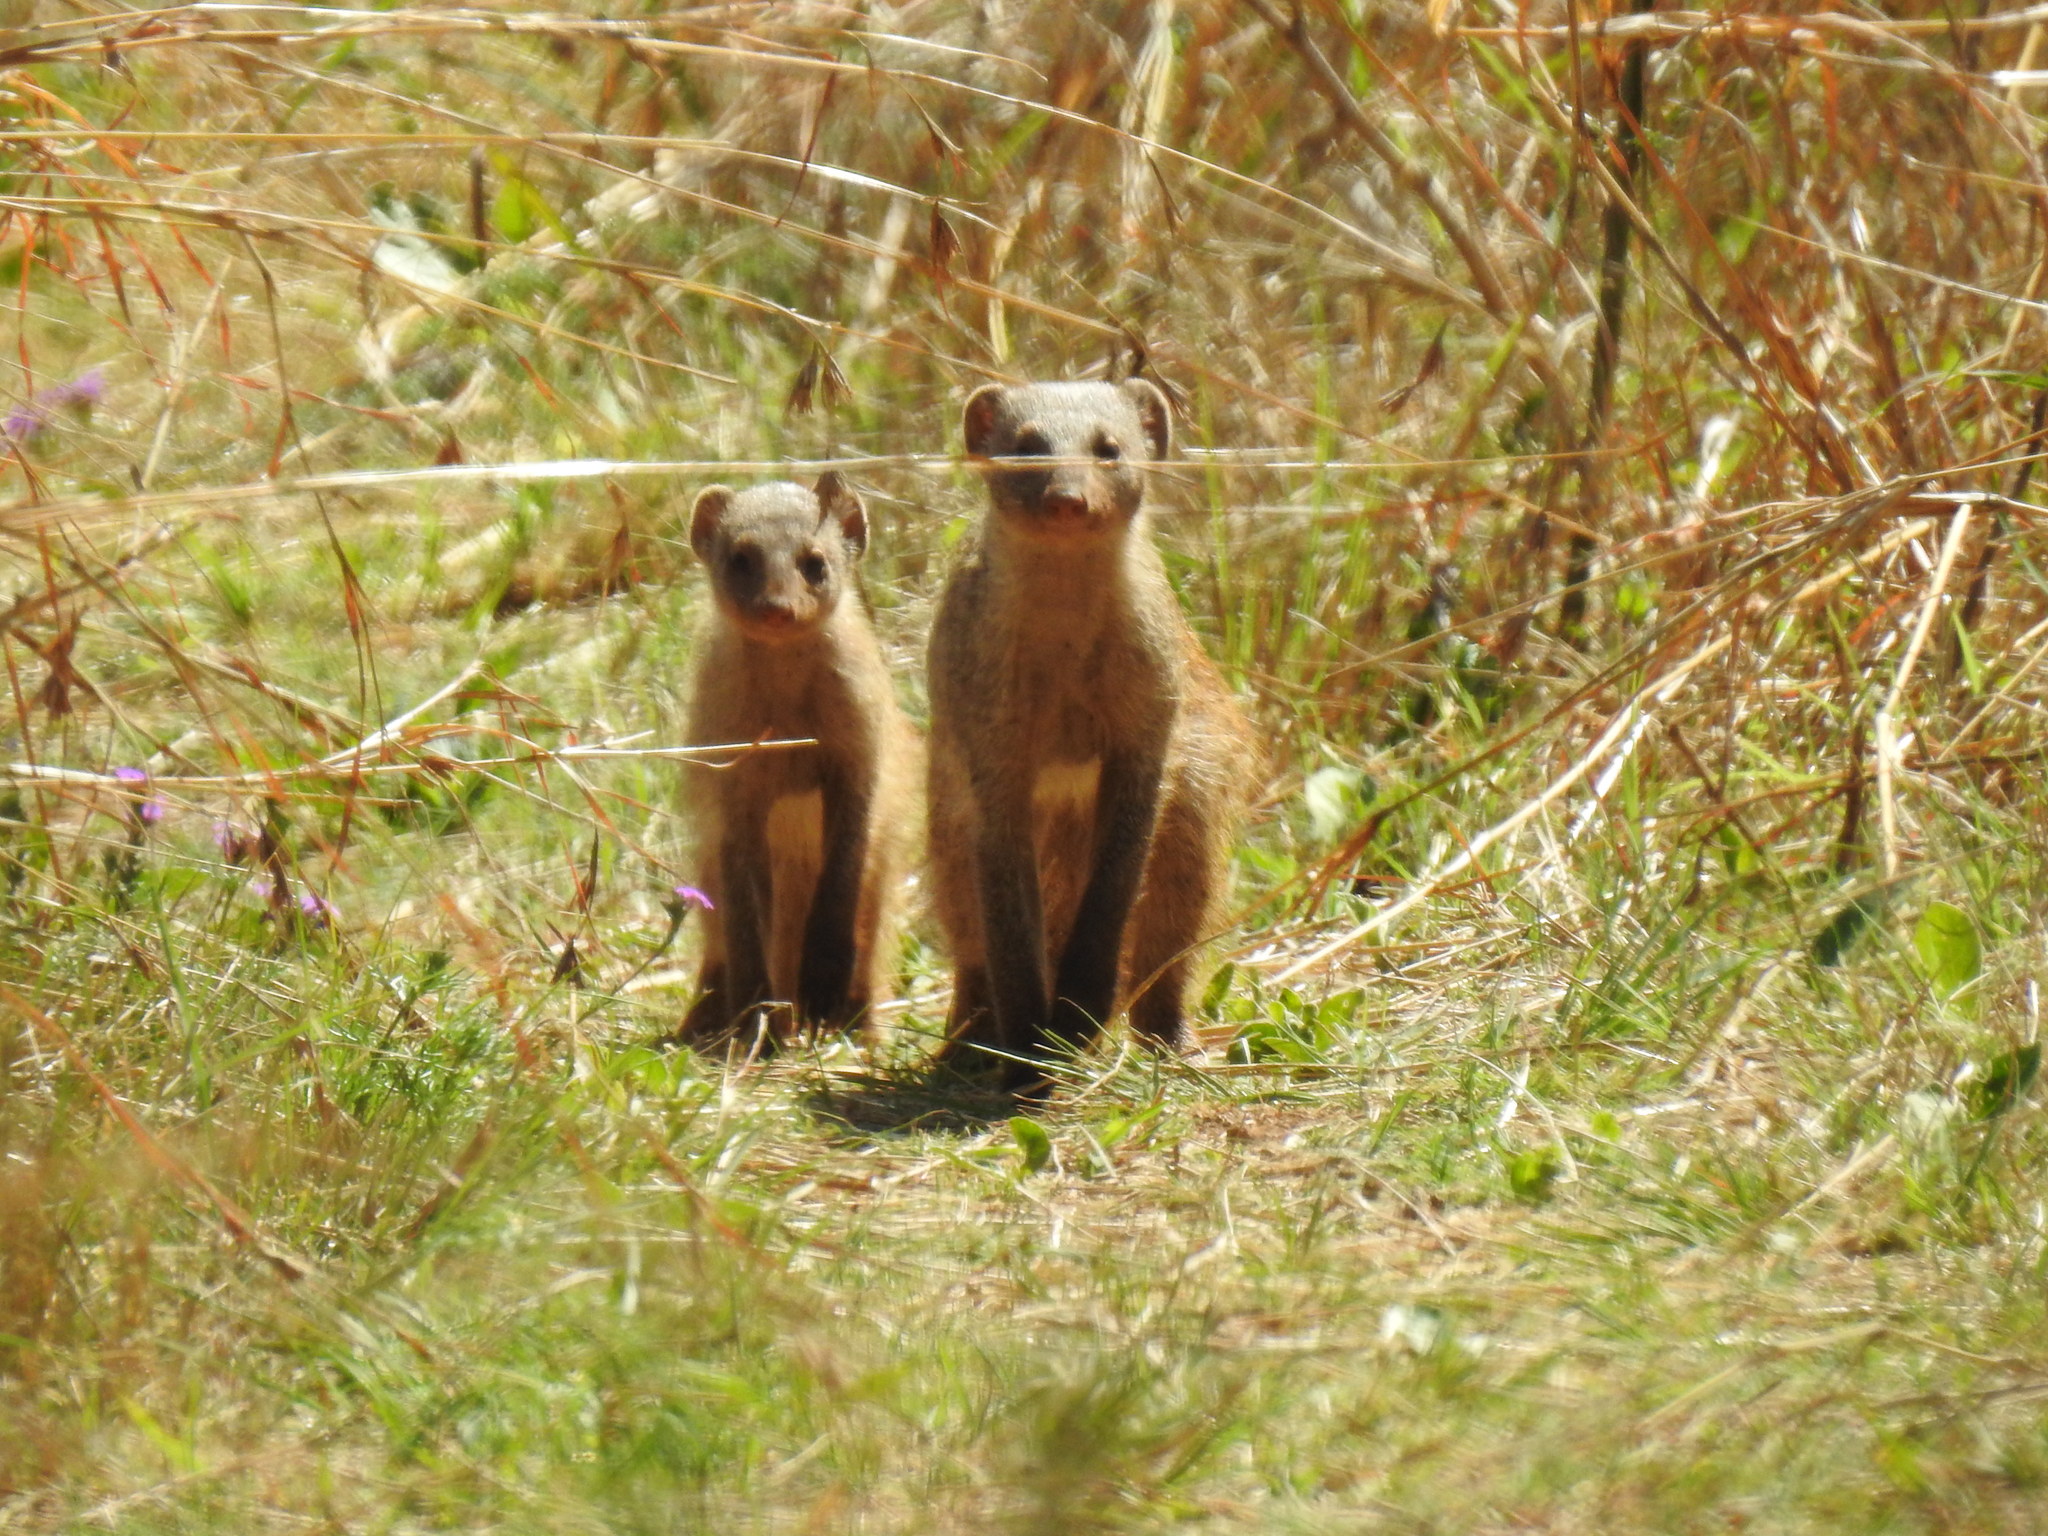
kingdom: Animalia
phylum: Chordata
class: Mammalia
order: Carnivora
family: Herpestidae
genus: Mungos
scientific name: Mungos mungo
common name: Banded mongoose
